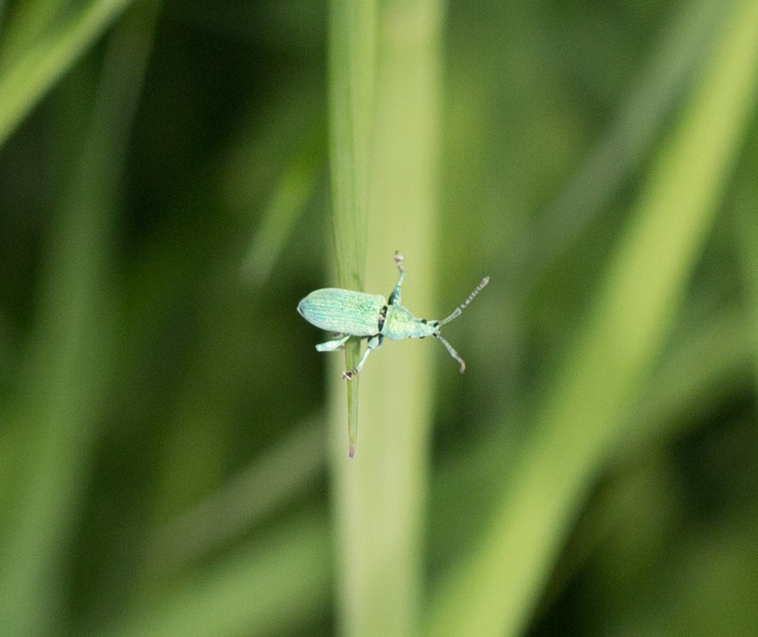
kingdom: Animalia
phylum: Arthropoda
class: Insecta
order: Coleoptera
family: Curculionidae
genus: Phyllobius
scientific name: Phyllobius maculicornis
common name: Green leaf weevil
